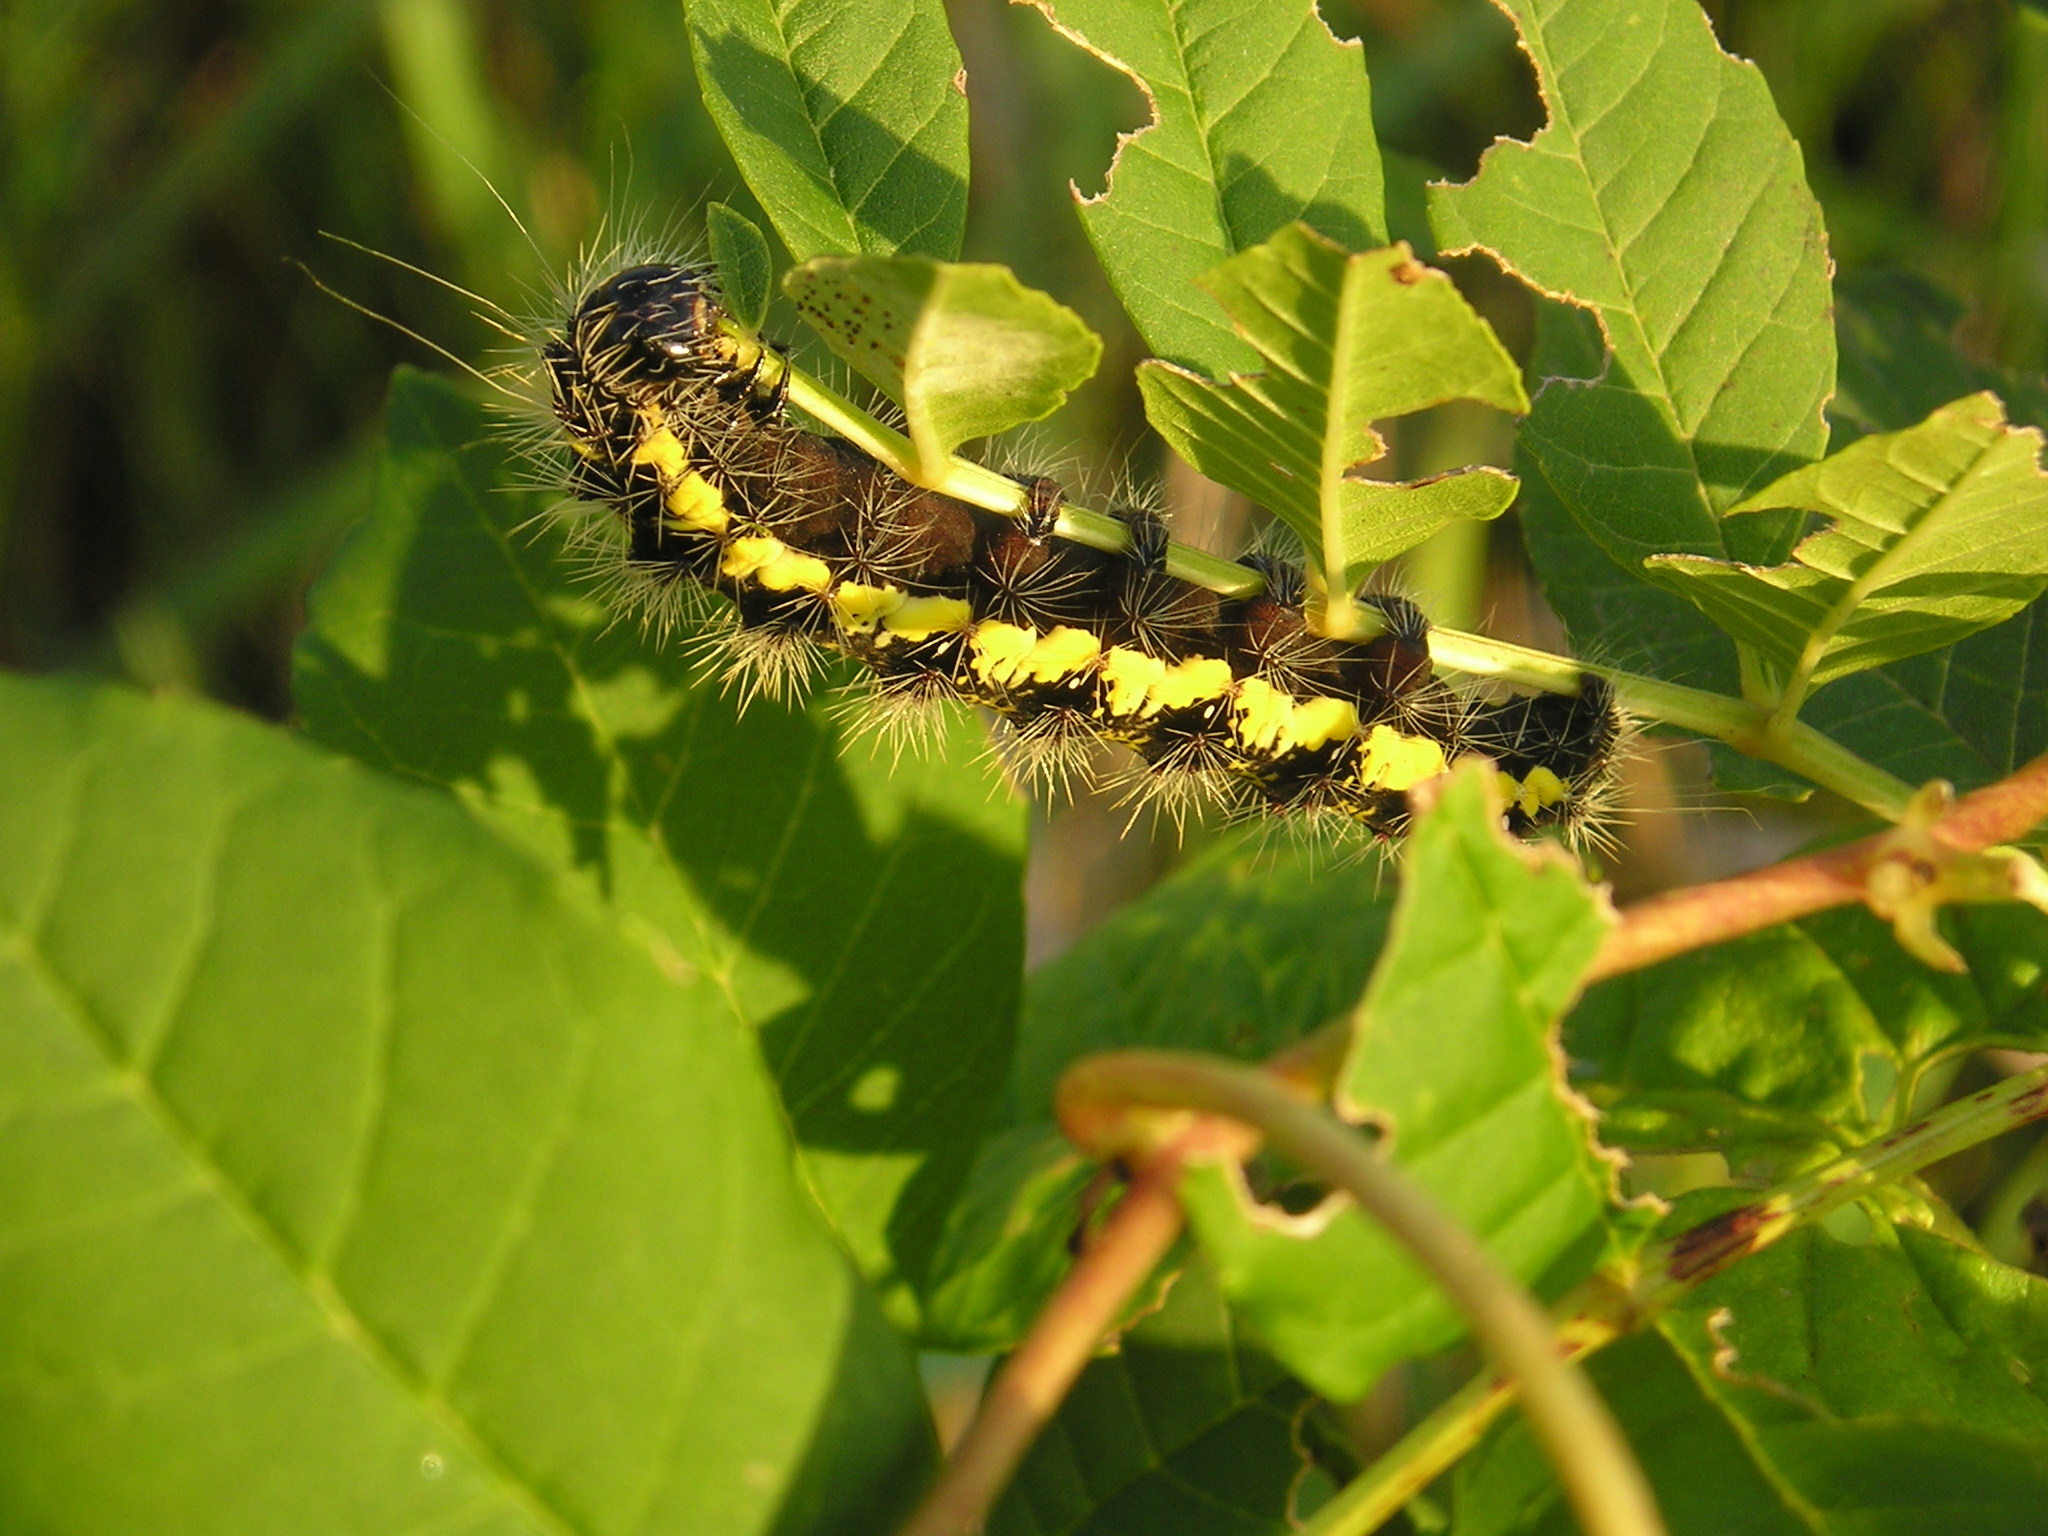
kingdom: Animalia
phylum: Arthropoda
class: Insecta
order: Lepidoptera
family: Noctuidae
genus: Acronicta
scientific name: Acronicta oblinita
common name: Smeared dagger
